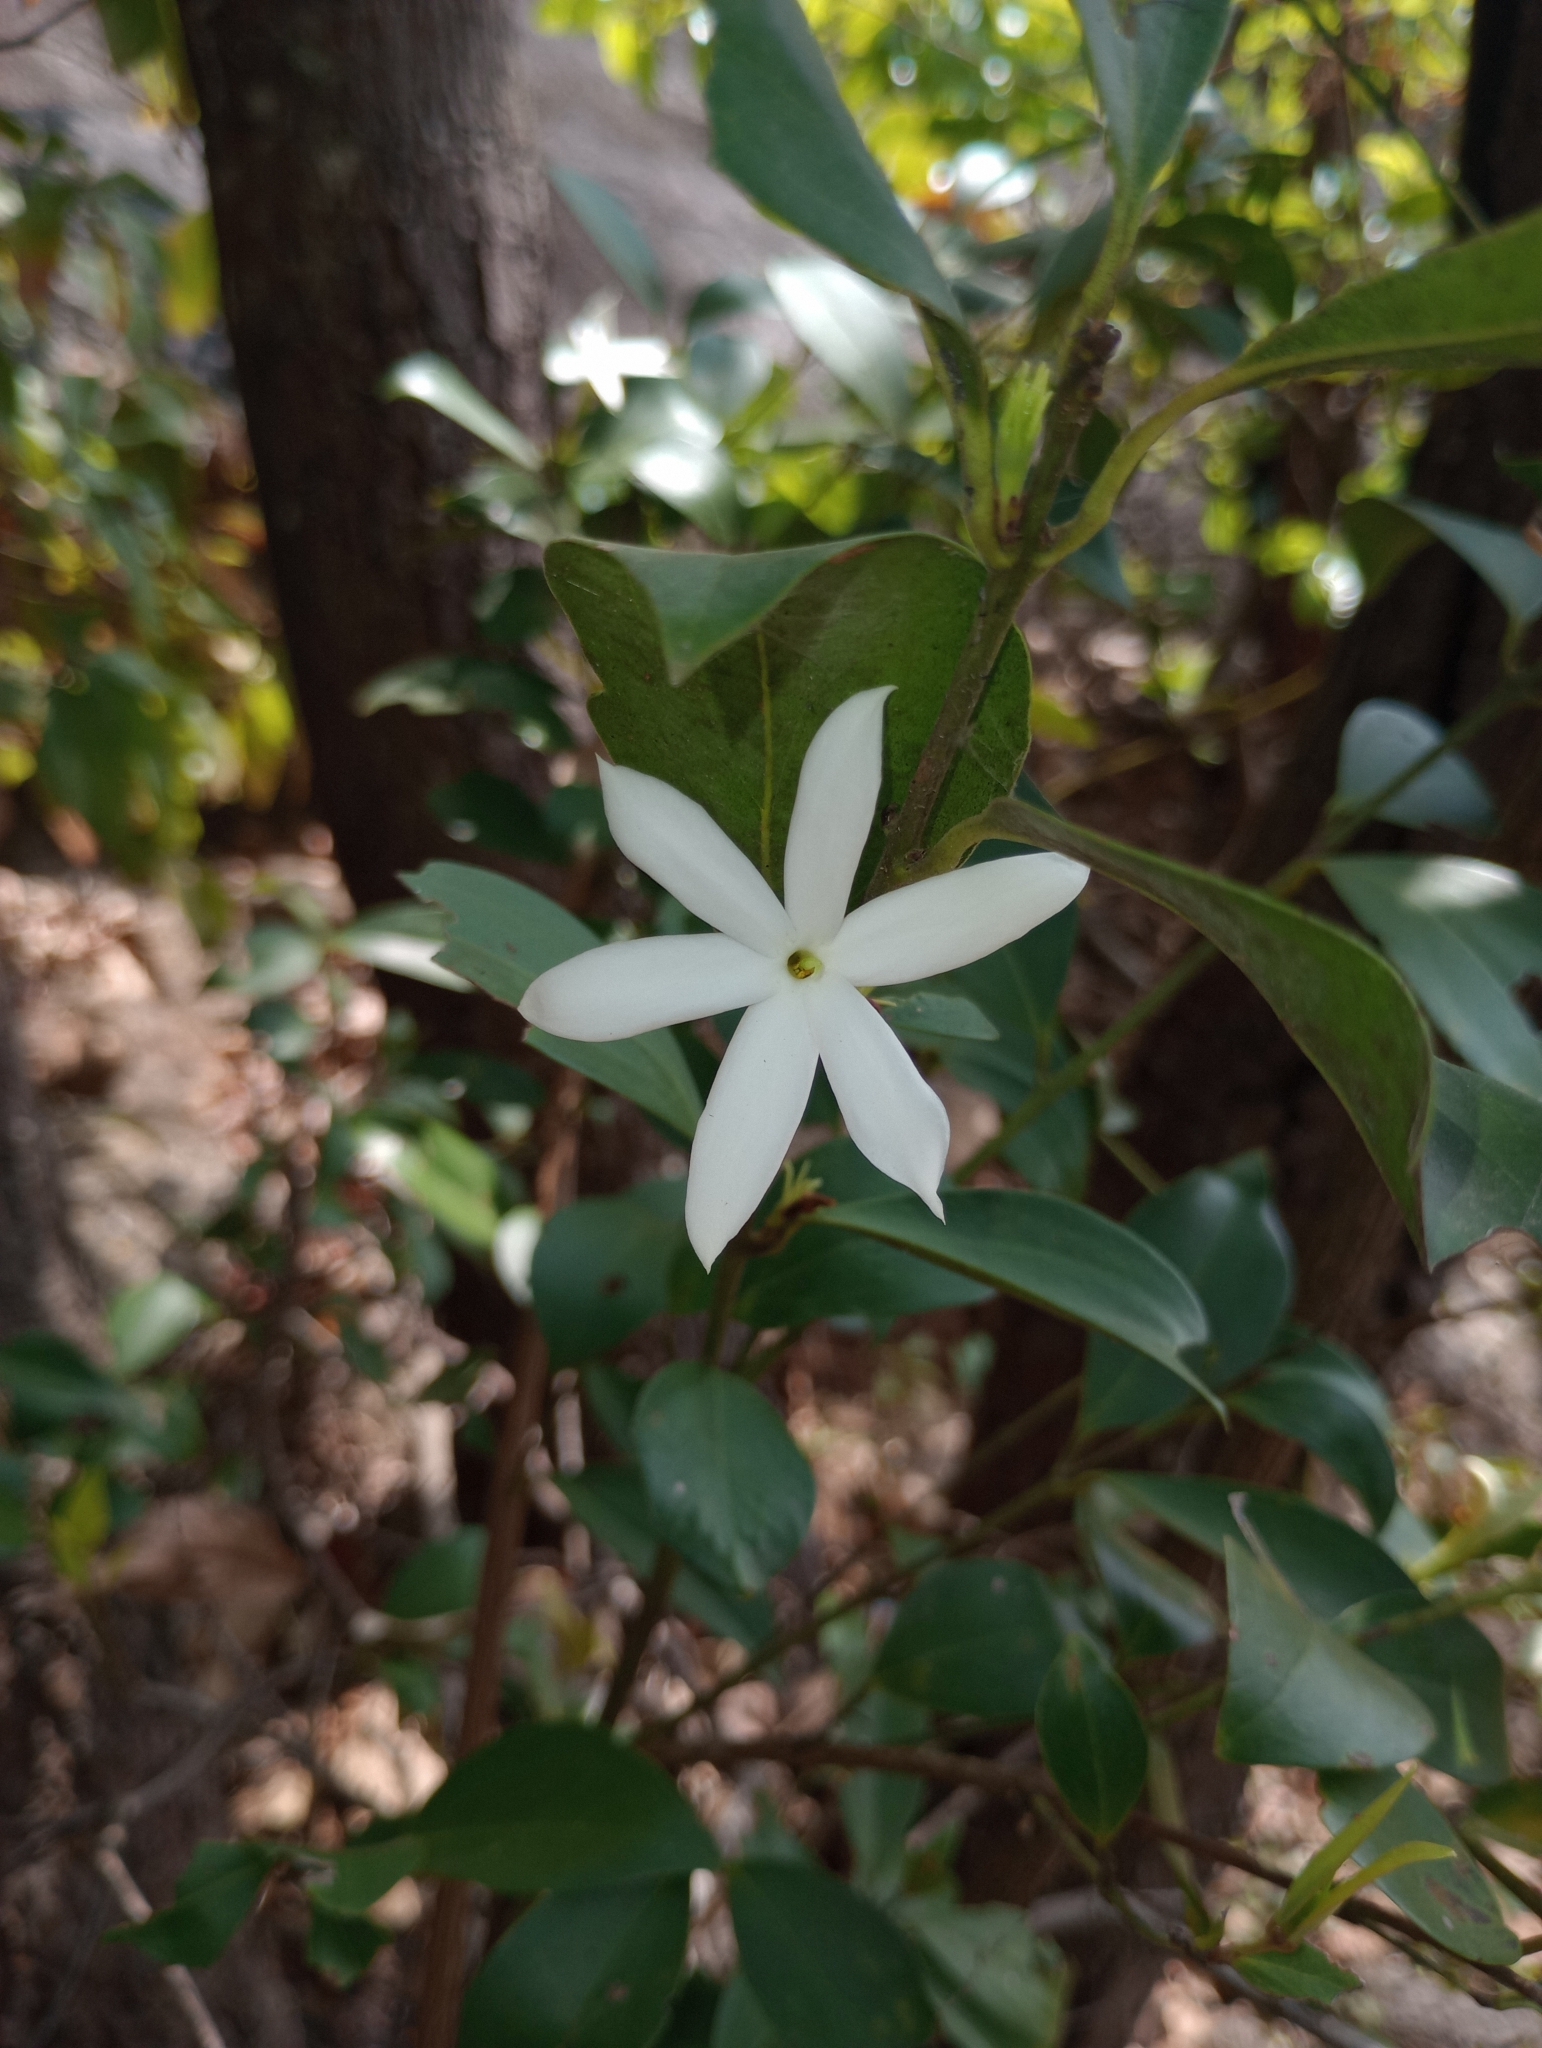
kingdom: Plantae
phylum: Tracheophyta
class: Magnoliopsida
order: Lamiales
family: Oleaceae
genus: Jasminum
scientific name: Jasminum cuspidatum
